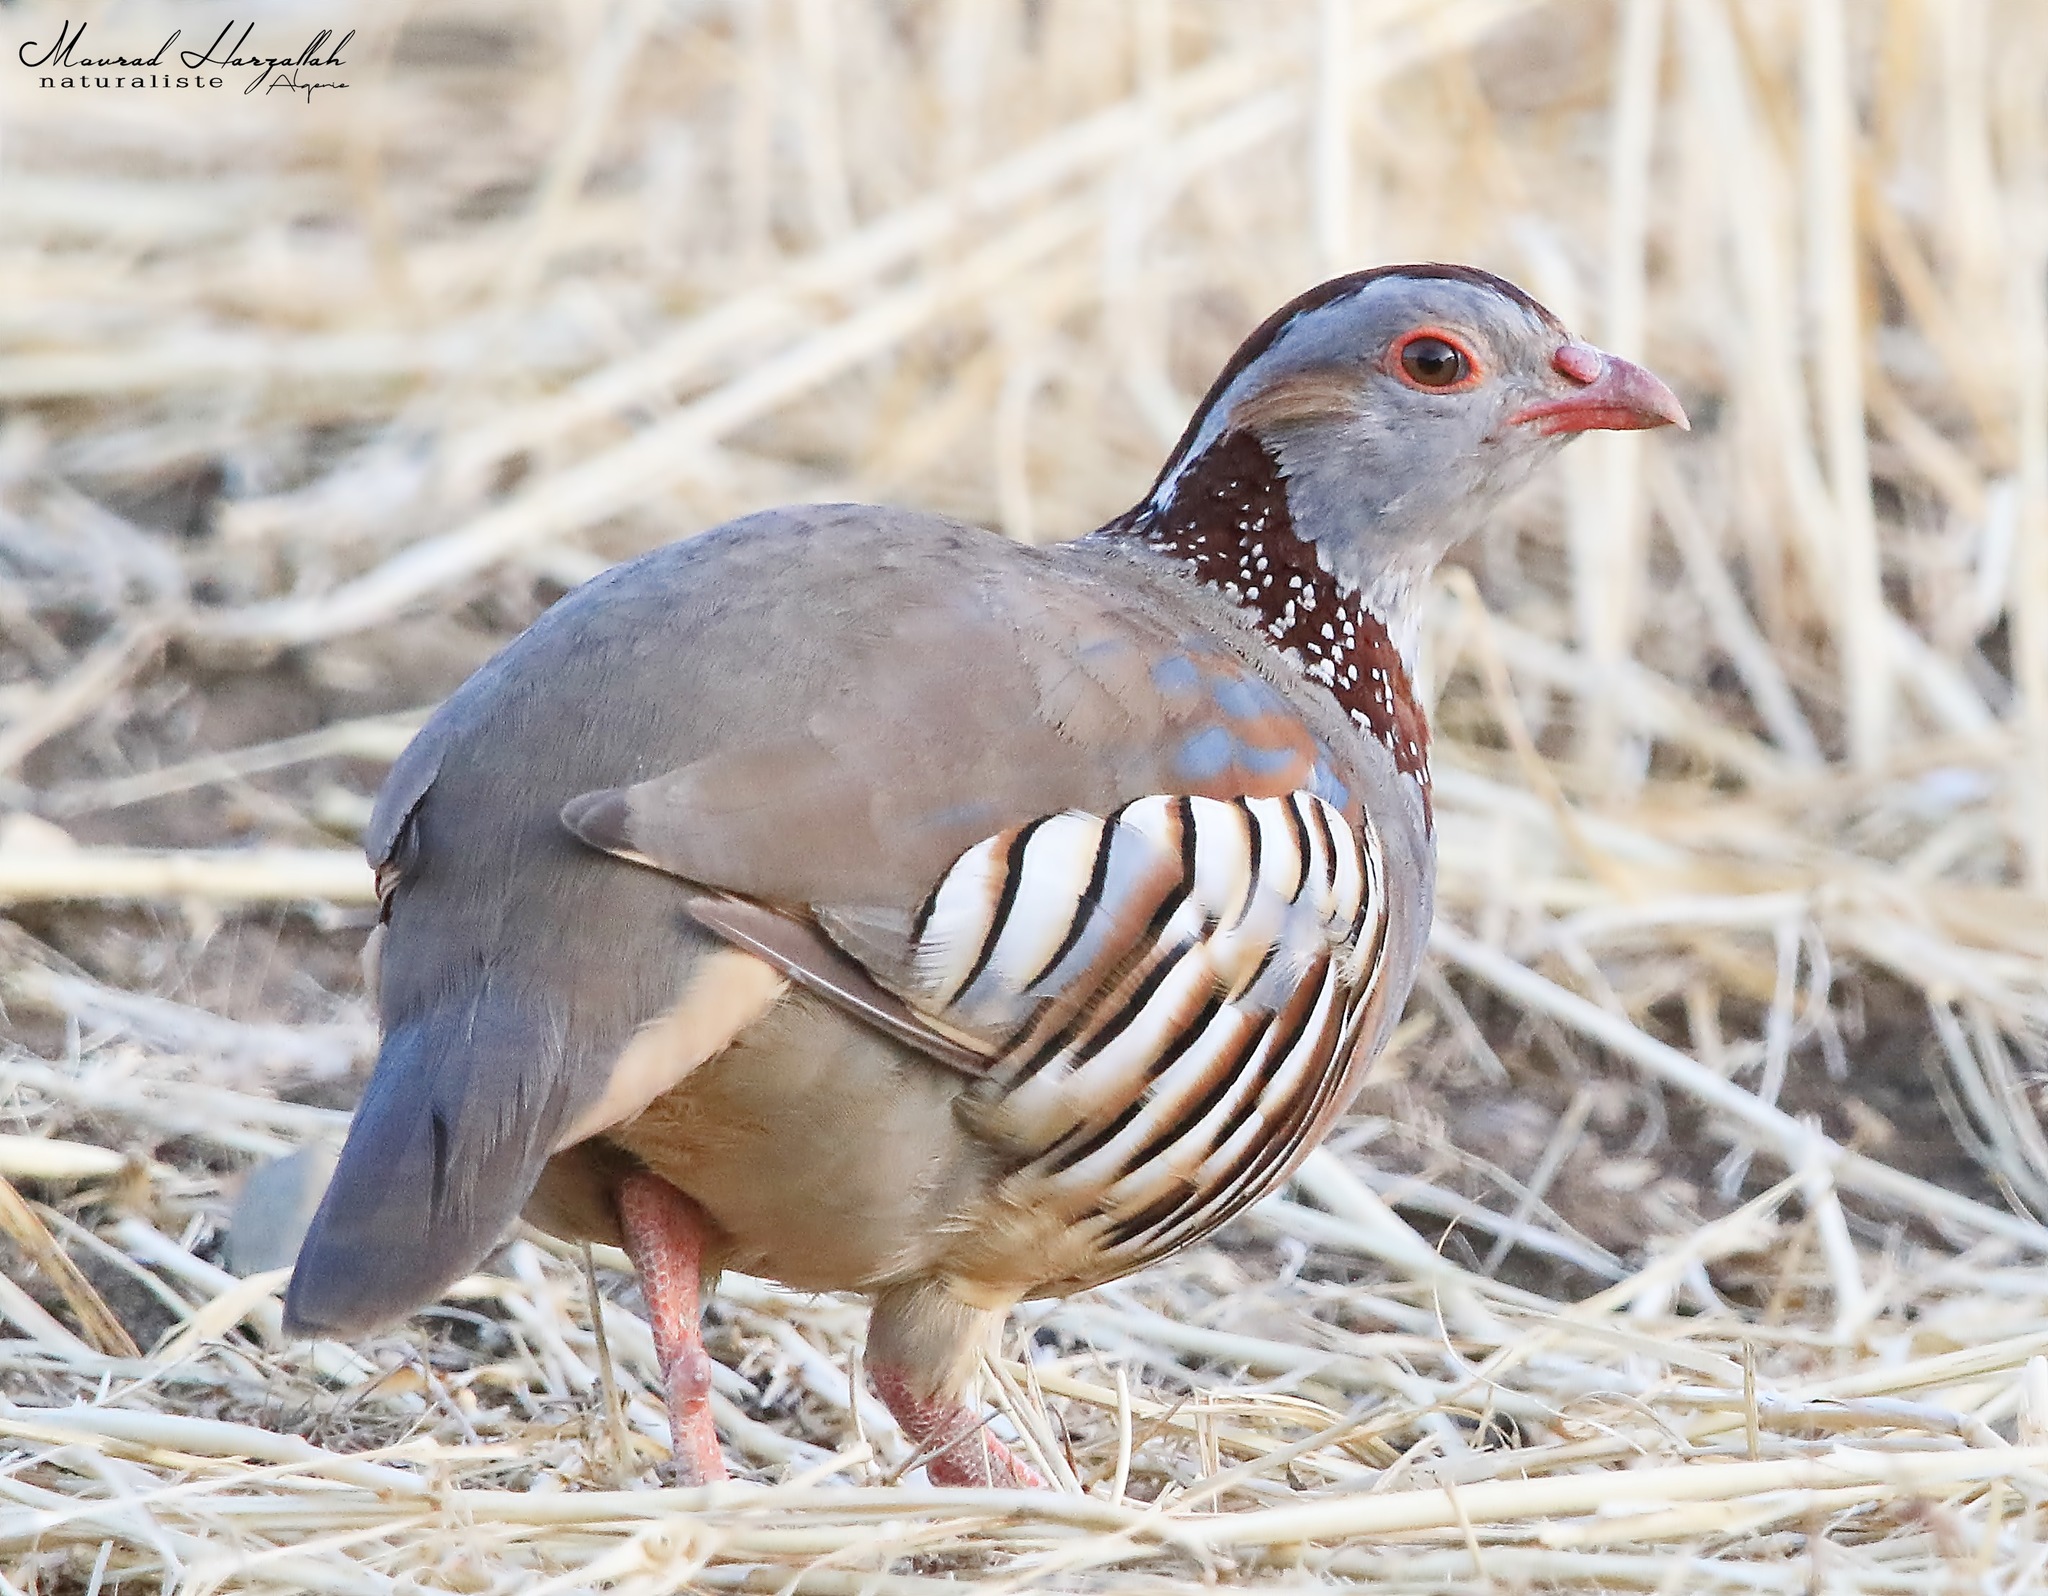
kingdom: Animalia
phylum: Chordata
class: Aves
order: Galliformes
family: Phasianidae
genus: Alectoris
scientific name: Alectoris barbara
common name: Barbary partridge
